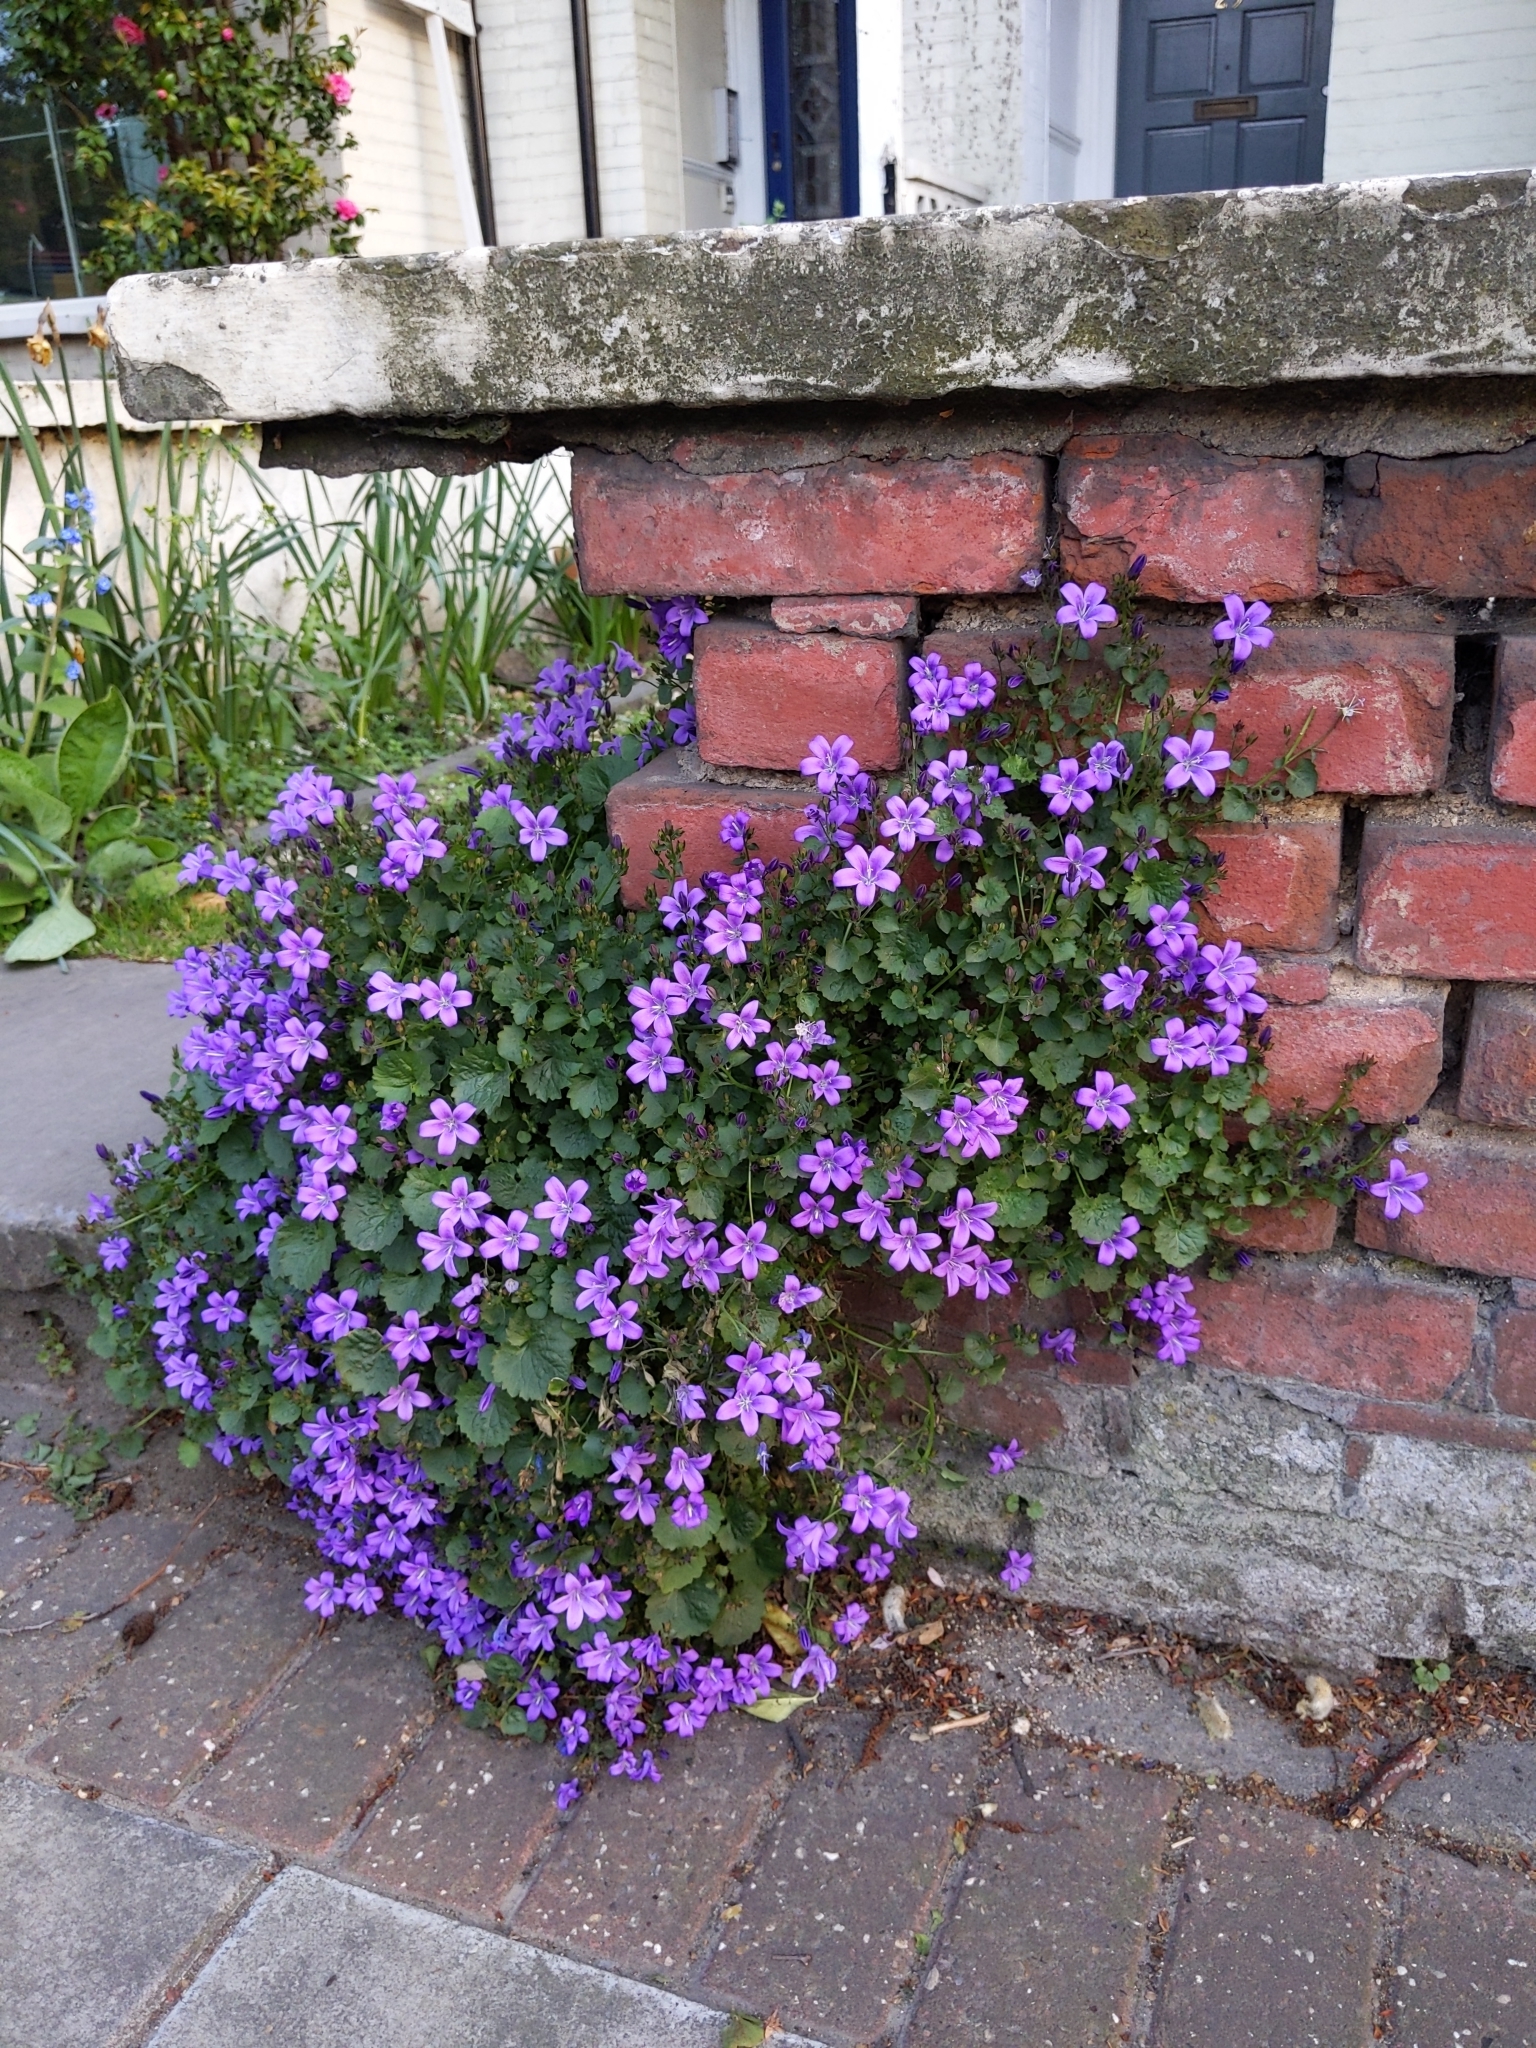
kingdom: Plantae
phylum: Tracheophyta
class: Magnoliopsida
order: Asterales
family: Campanulaceae
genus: Campanula
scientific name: Campanula poscharskyana
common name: Trailing bellflower
